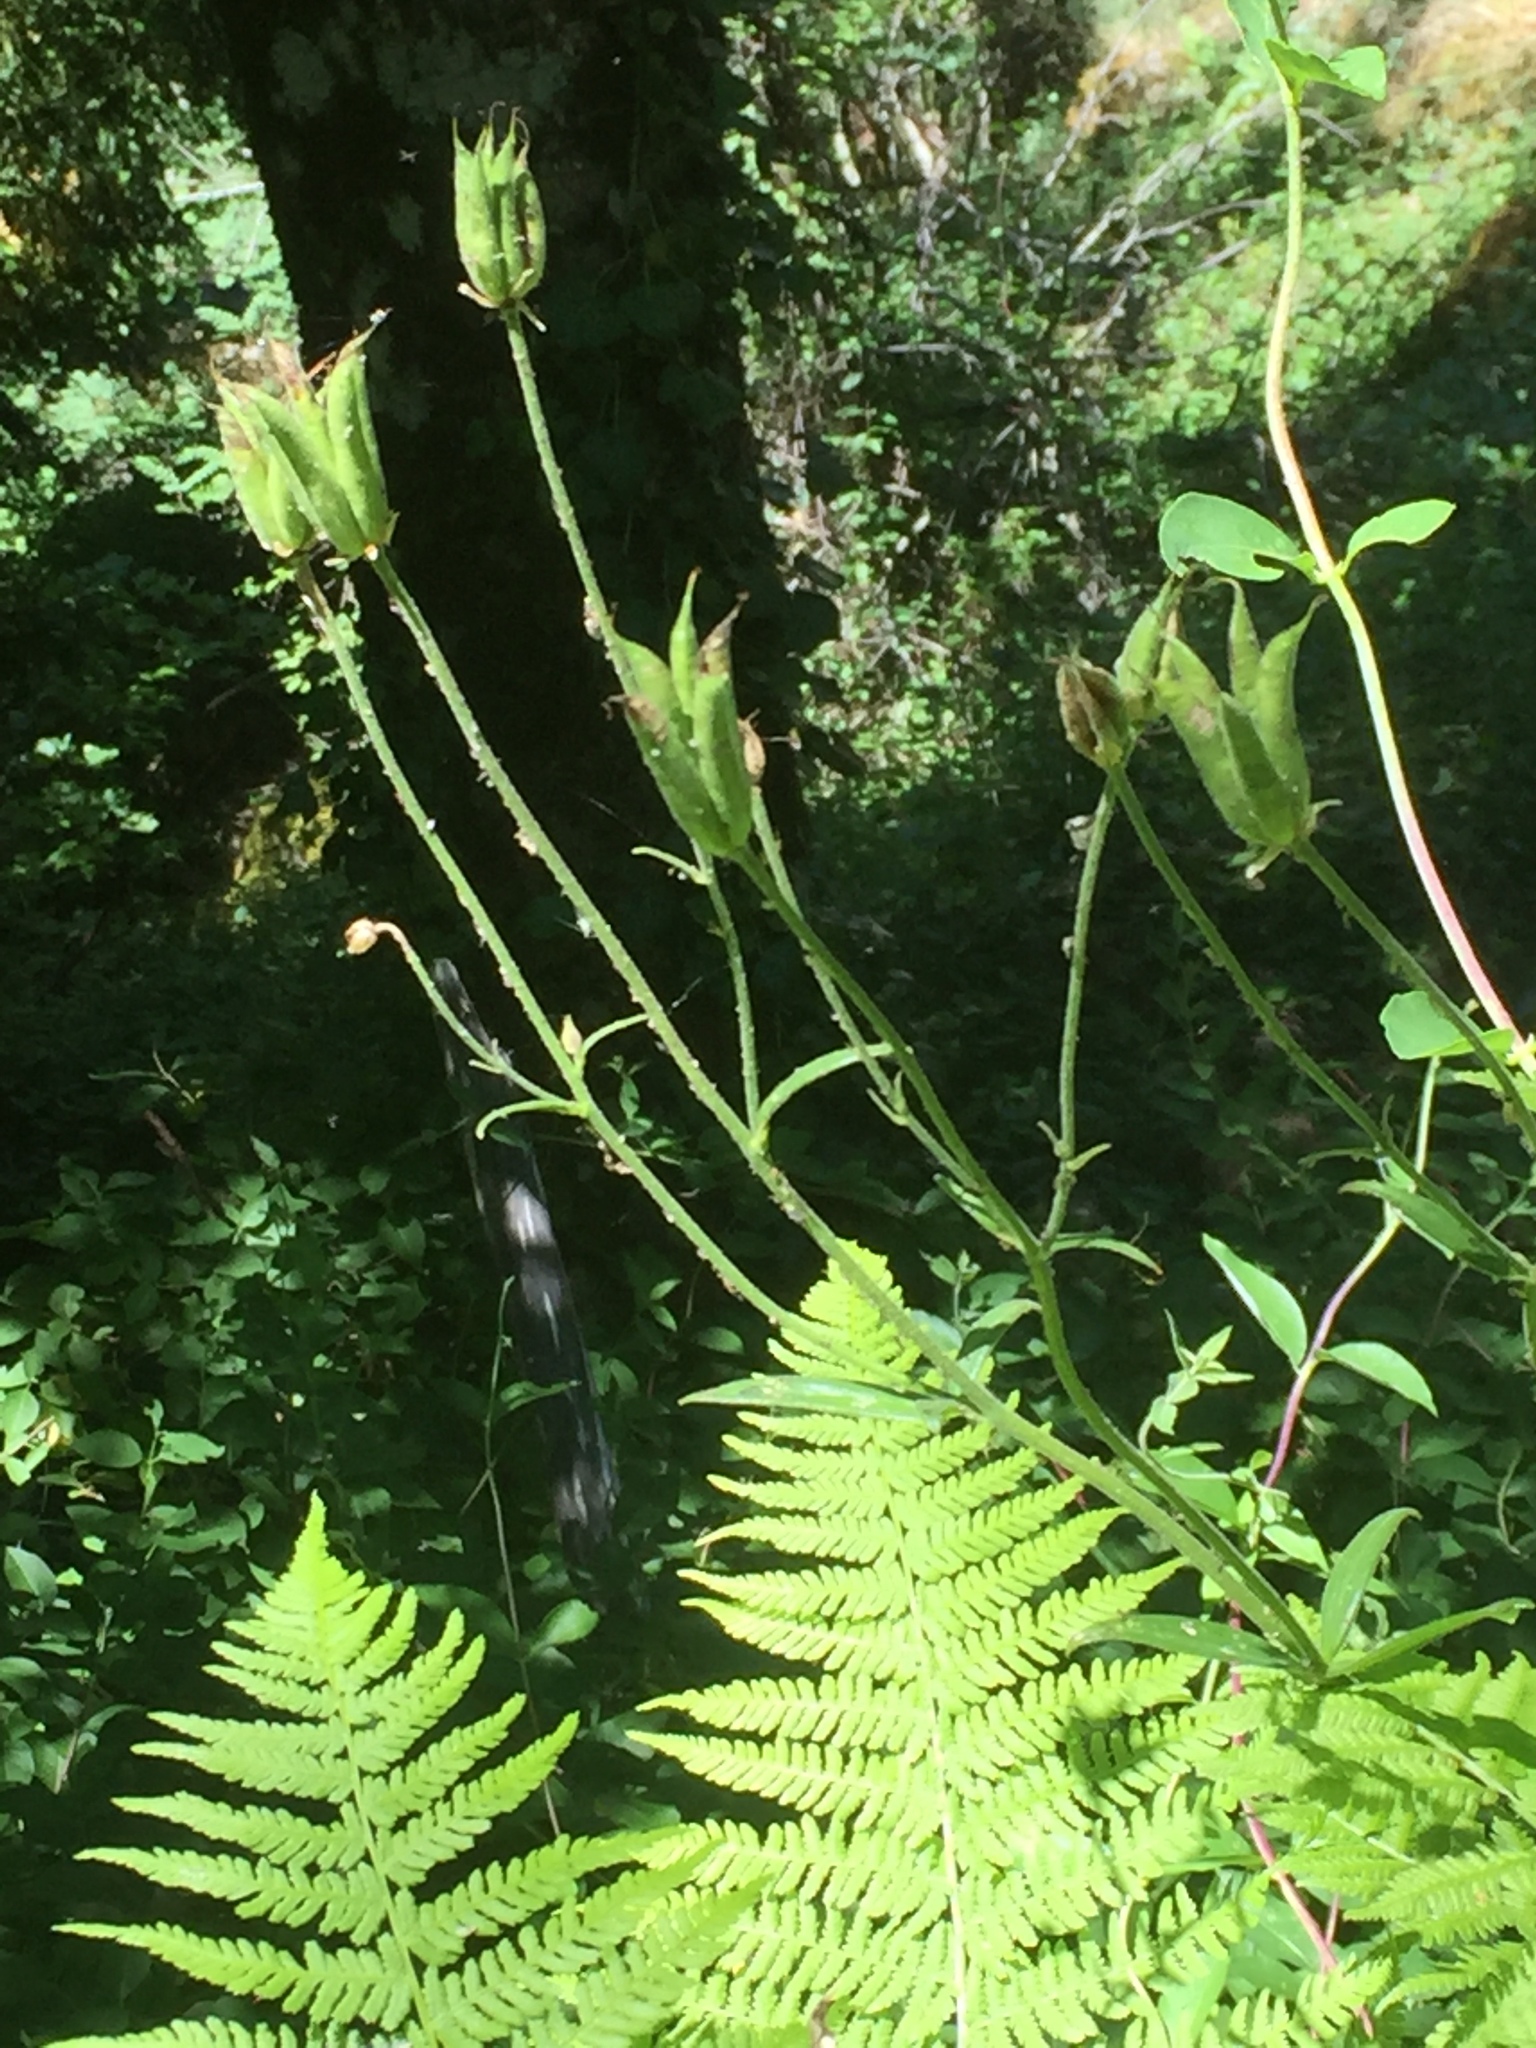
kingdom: Plantae
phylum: Tracheophyta
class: Magnoliopsida
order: Ranunculales
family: Ranunculaceae
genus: Aquilegia
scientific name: Aquilegia vulgaris
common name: Columbine
